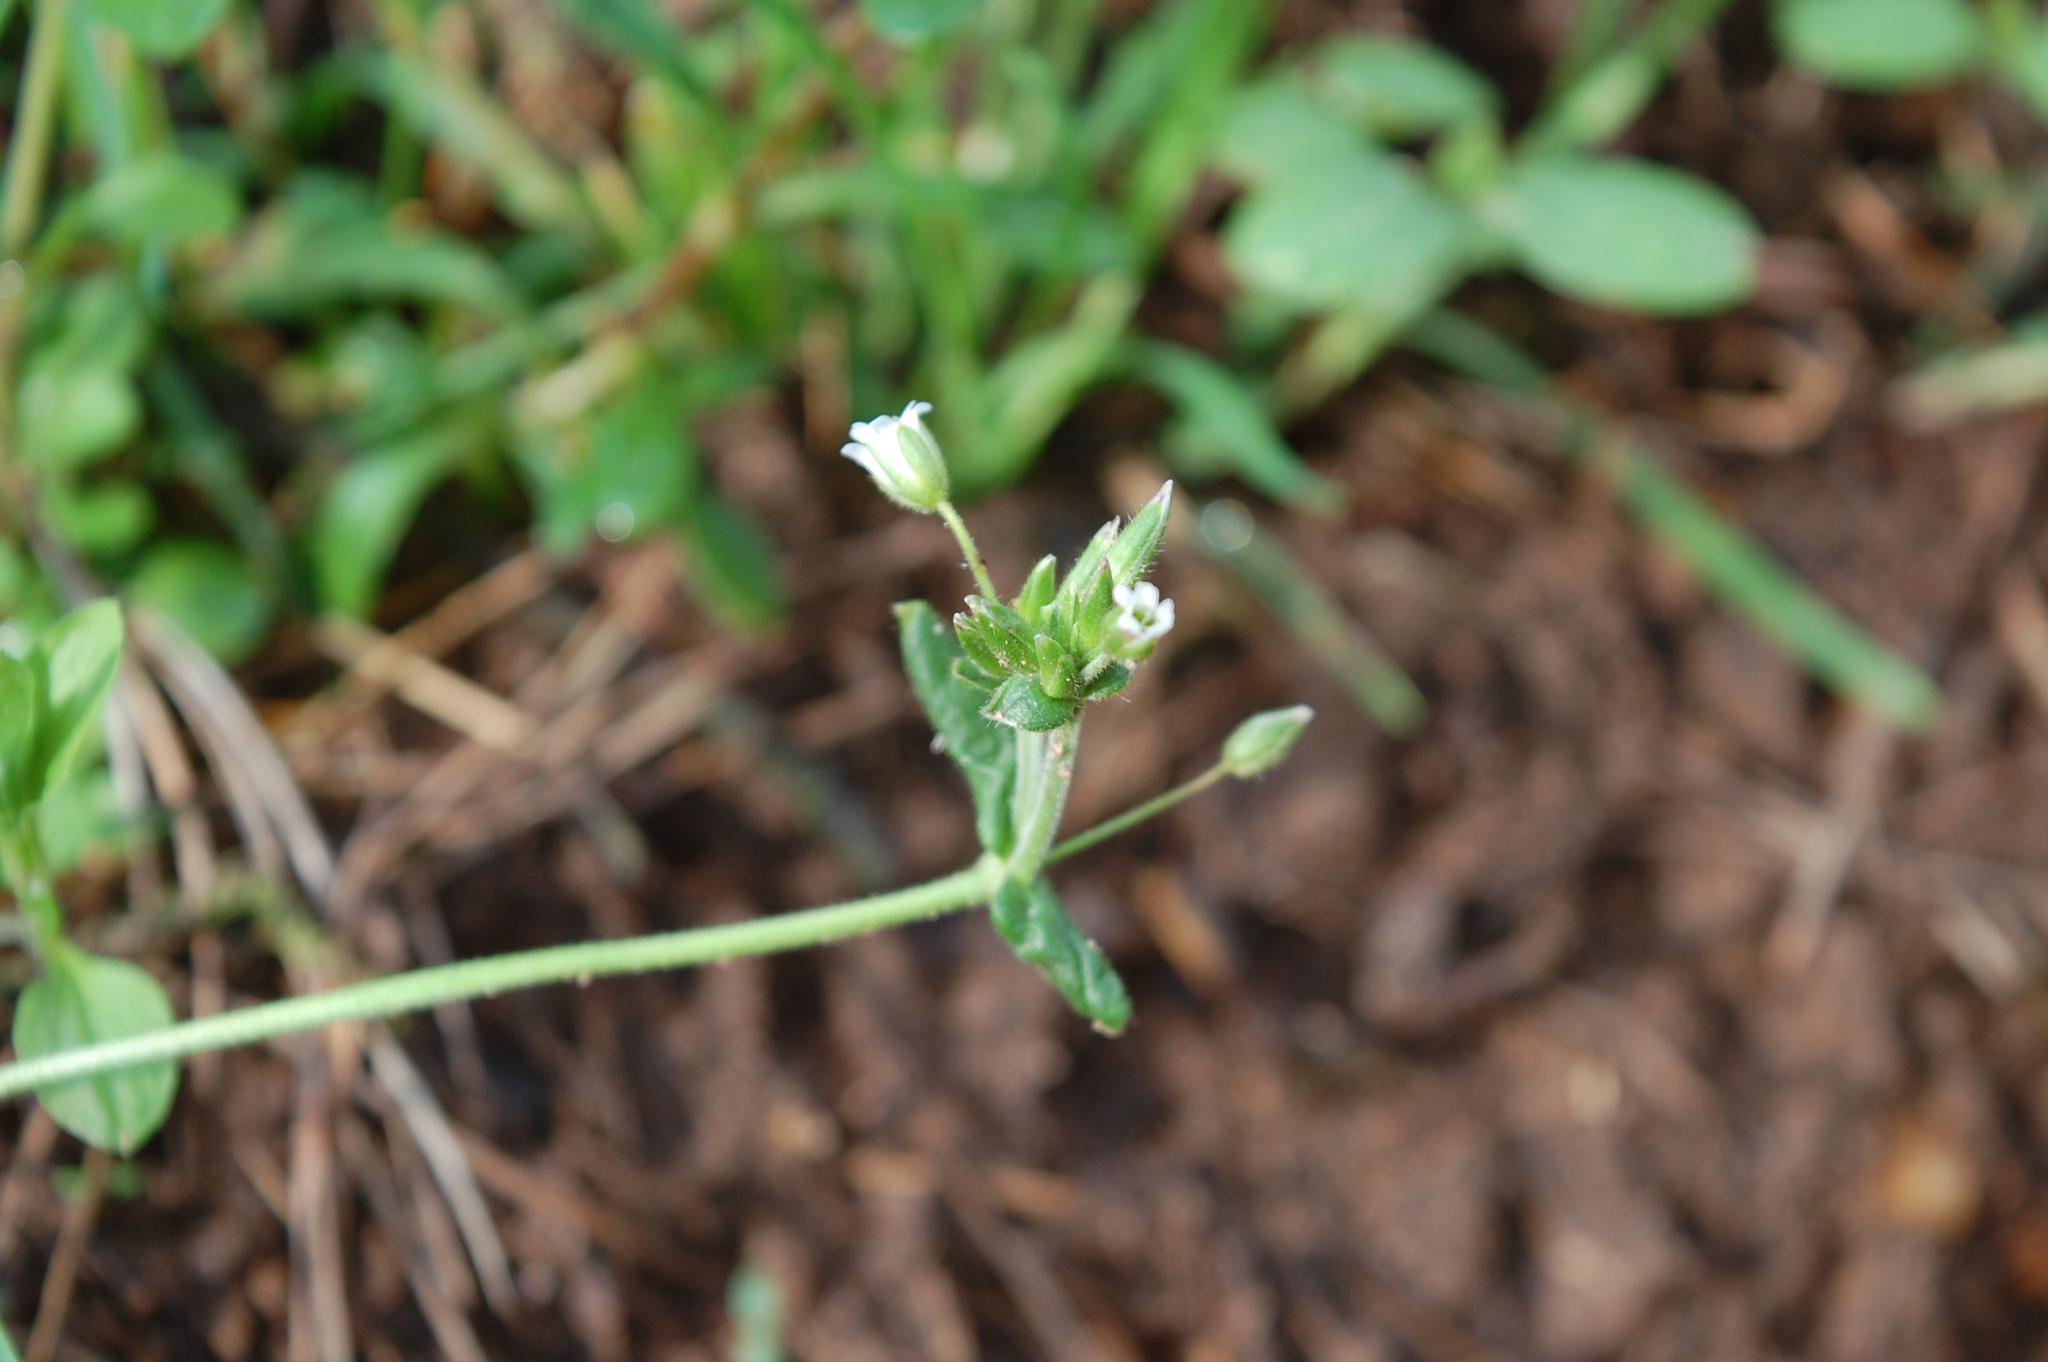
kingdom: Plantae
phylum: Tracheophyta
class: Magnoliopsida
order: Caryophyllales
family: Caryophyllaceae
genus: Cerastium
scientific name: Cerastium holosteoides
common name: Big chickweed
